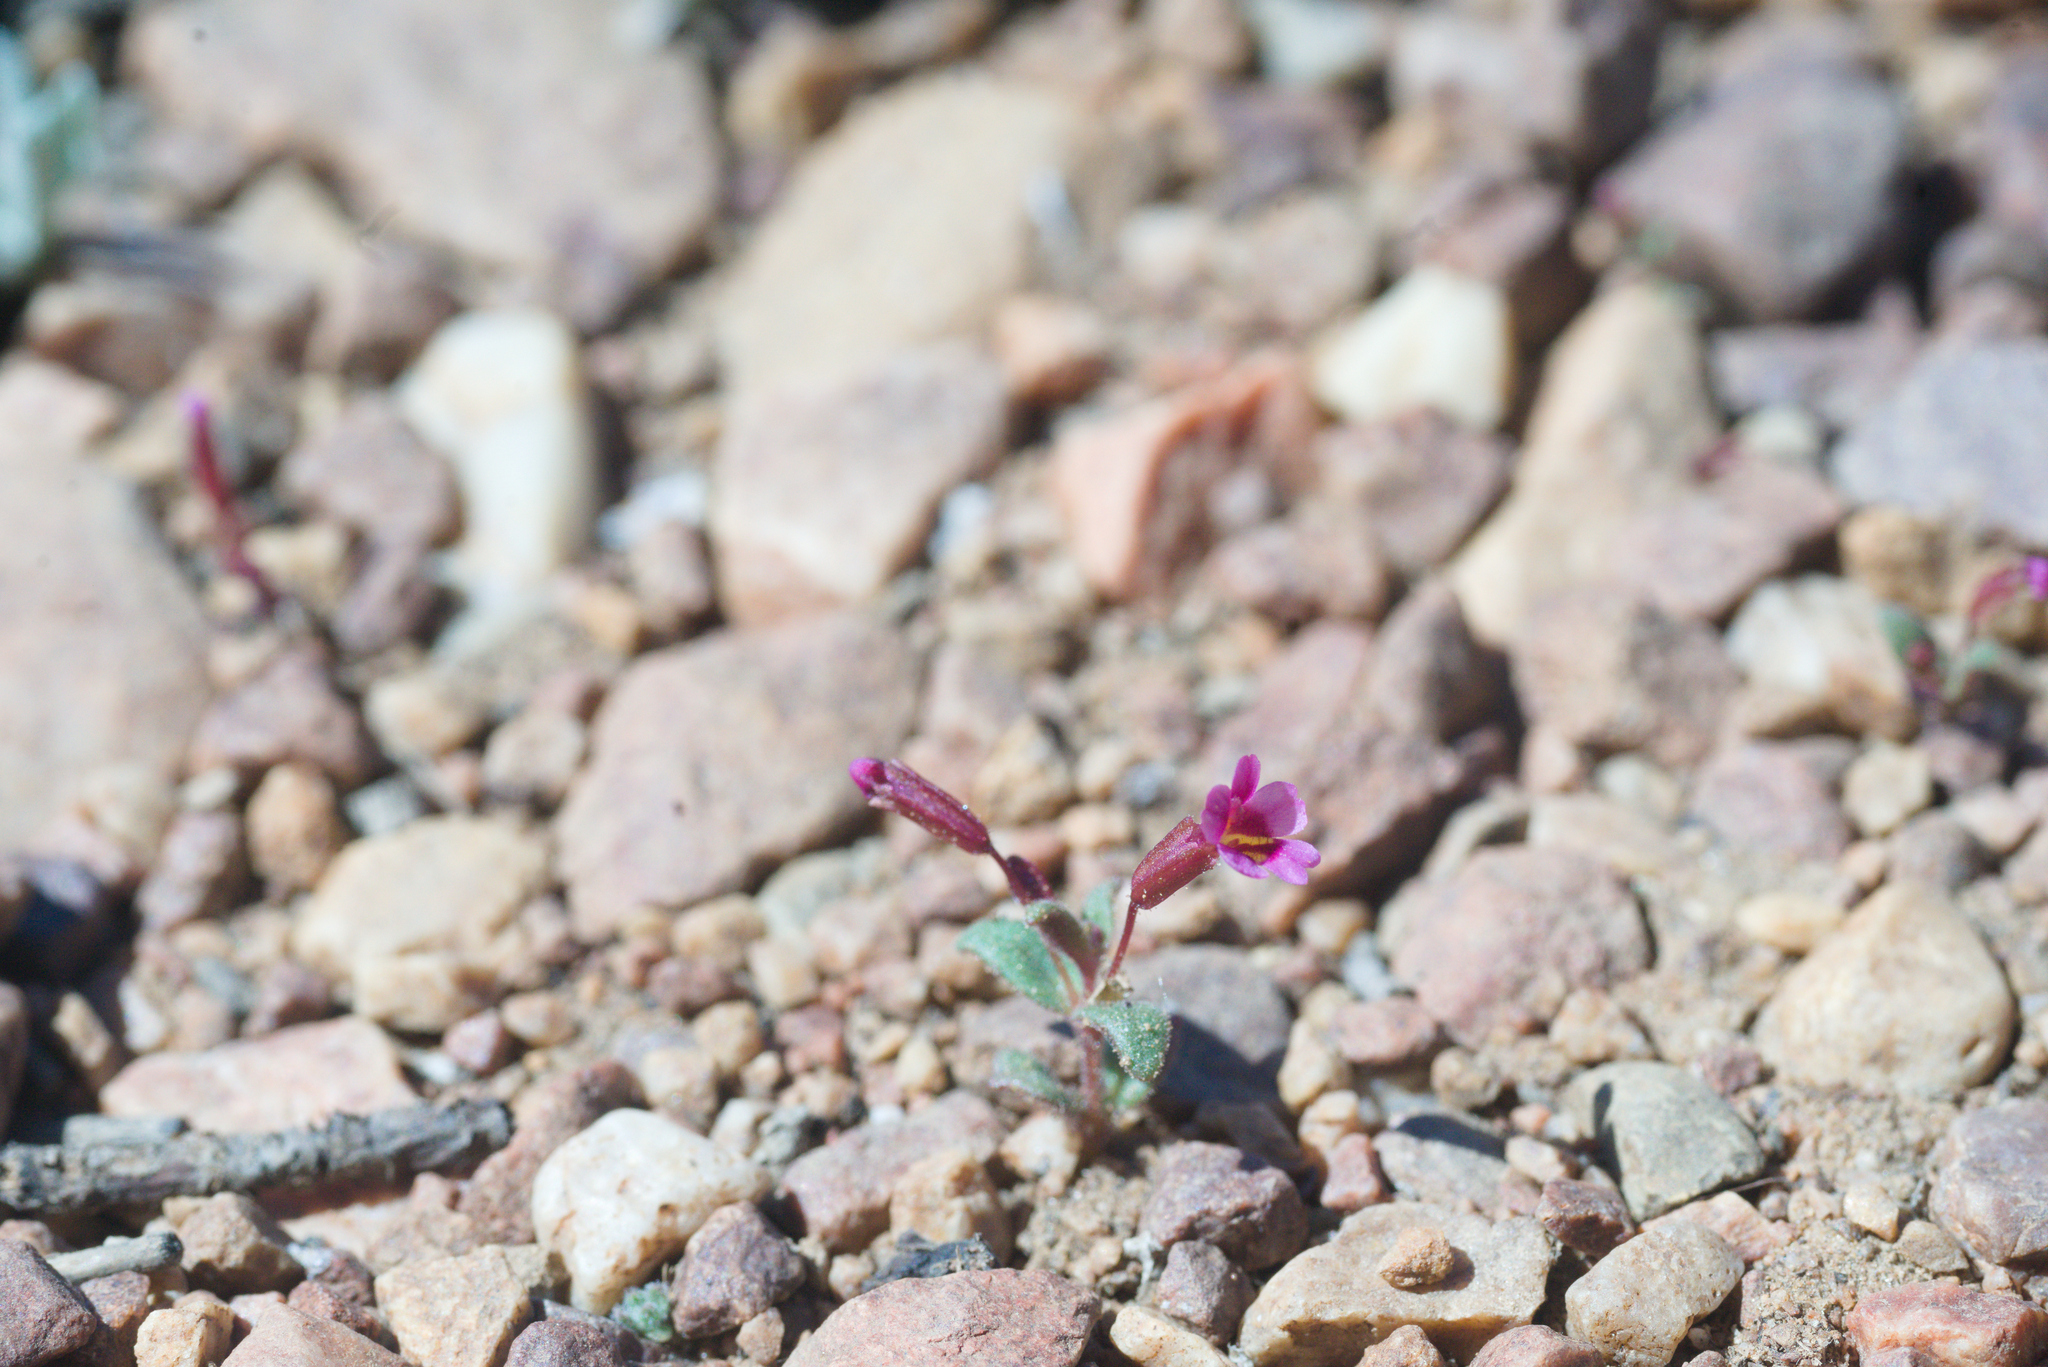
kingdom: Plantae
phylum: Tracheophyta
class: Magnoliopsida
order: Lamiales
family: Phrymaceae
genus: Erythranthe
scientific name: Erythranthe androsacea
